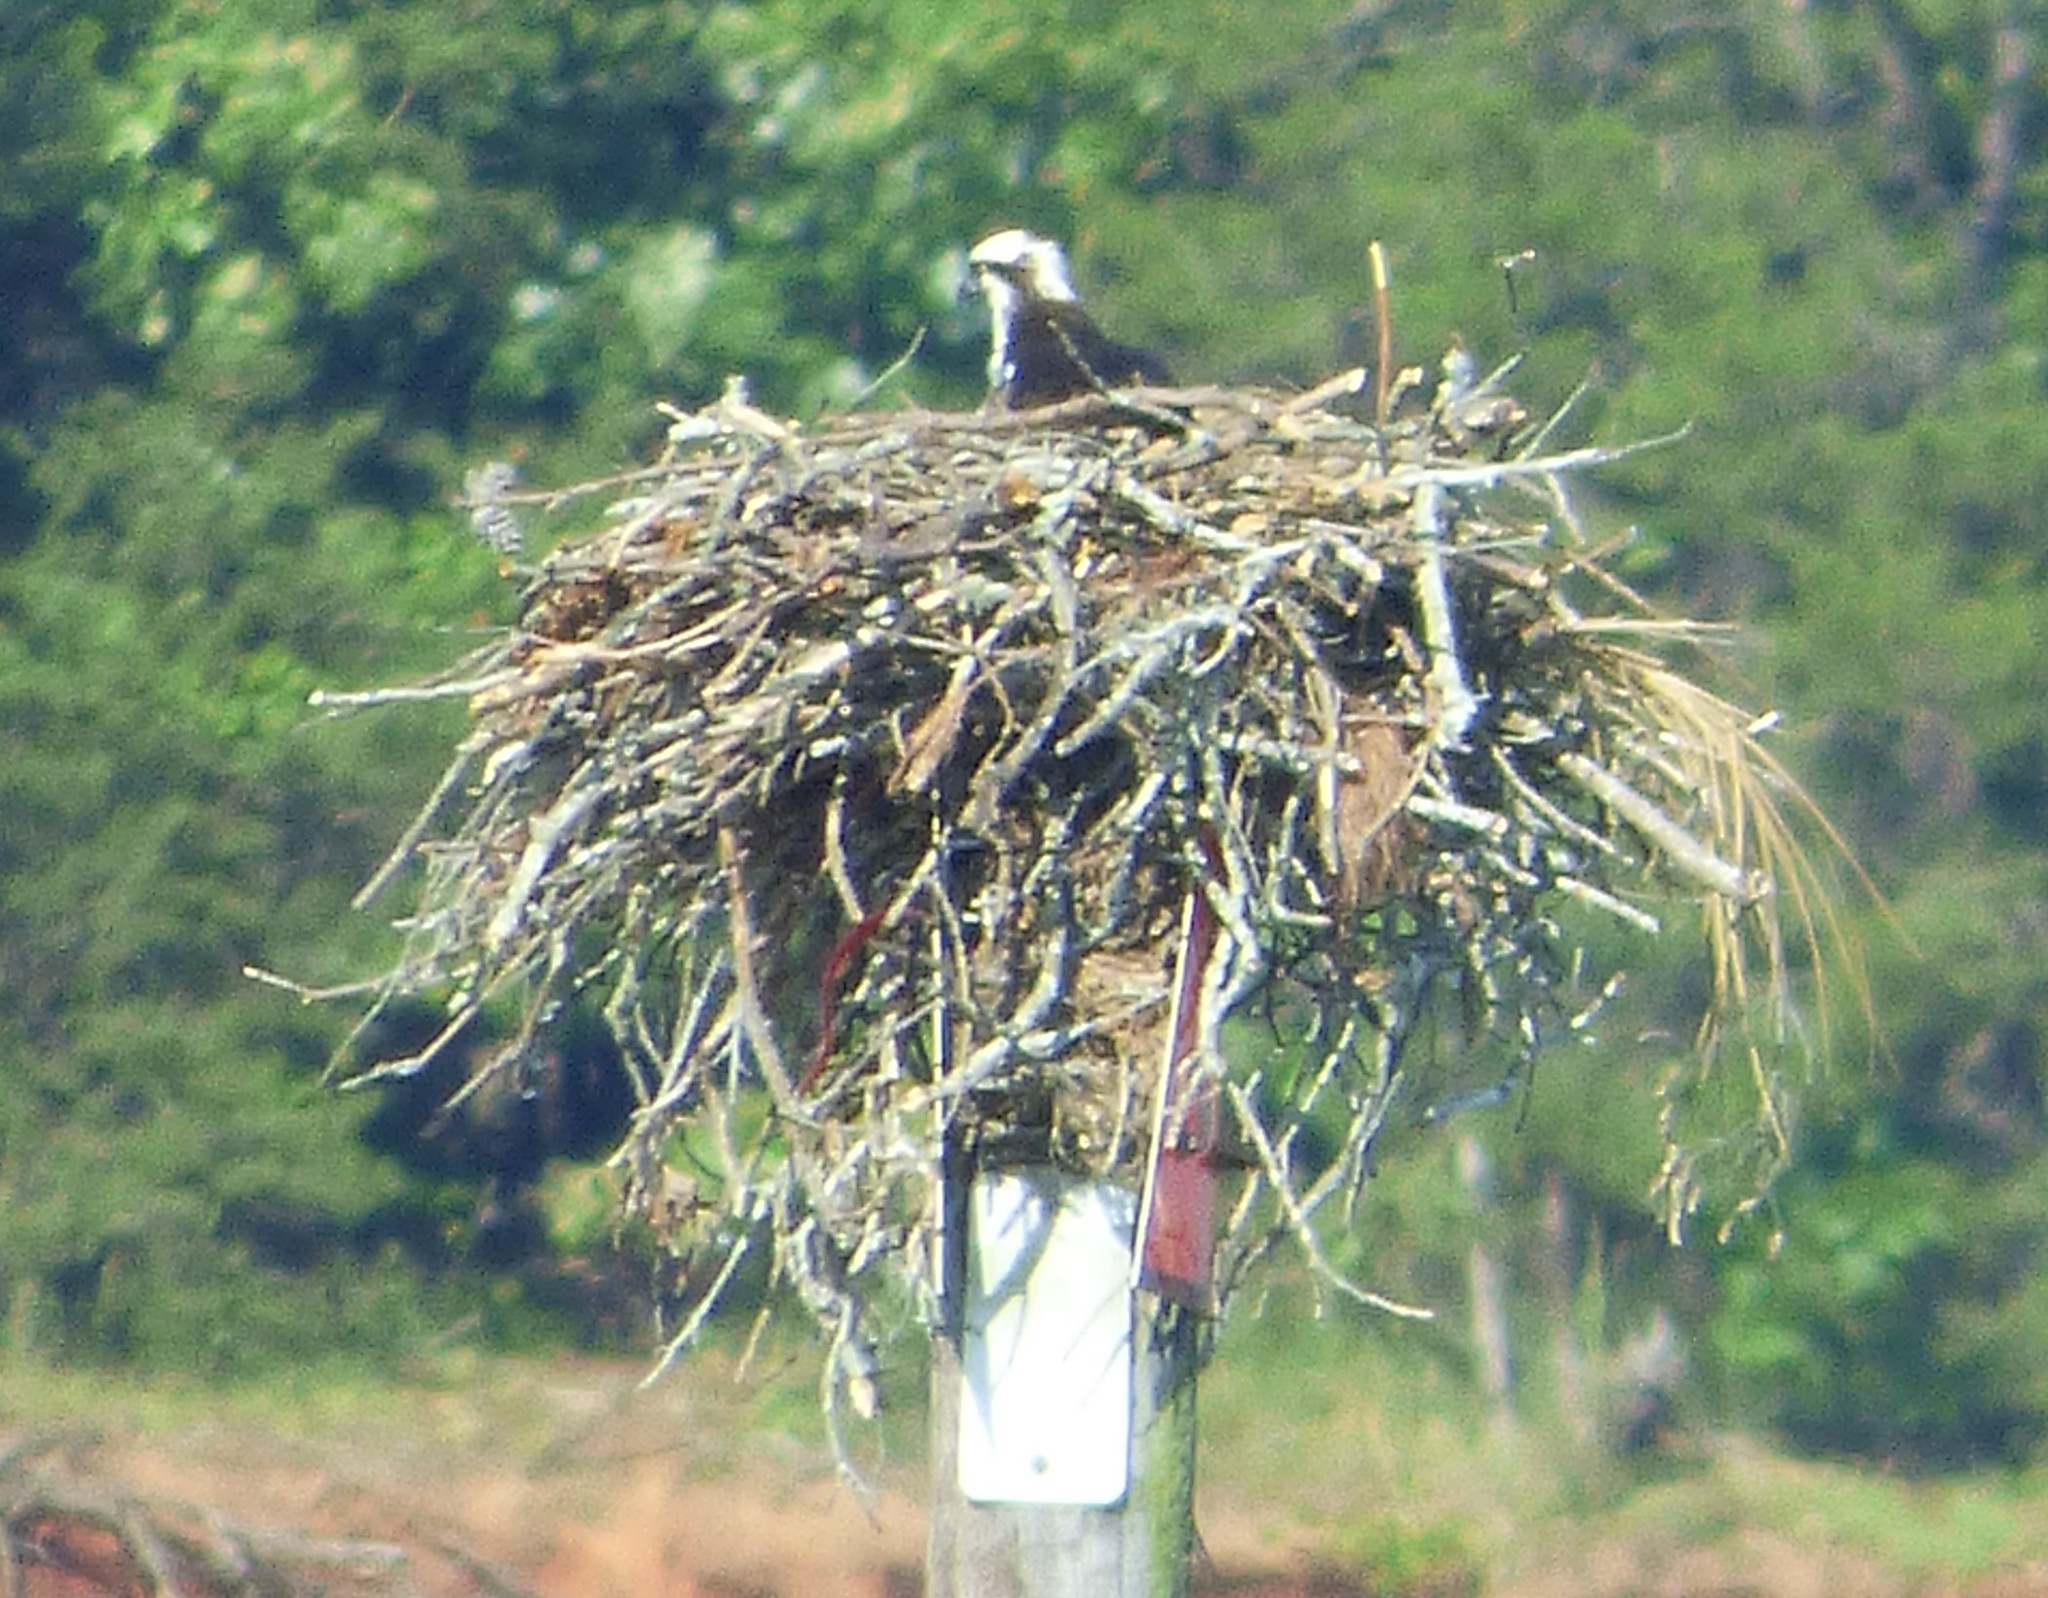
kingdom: Animalia
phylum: Chordata
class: Aves
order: Accipitriformes
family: Pandionidae
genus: Pandion
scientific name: Pandion haliaetus
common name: Osprey
